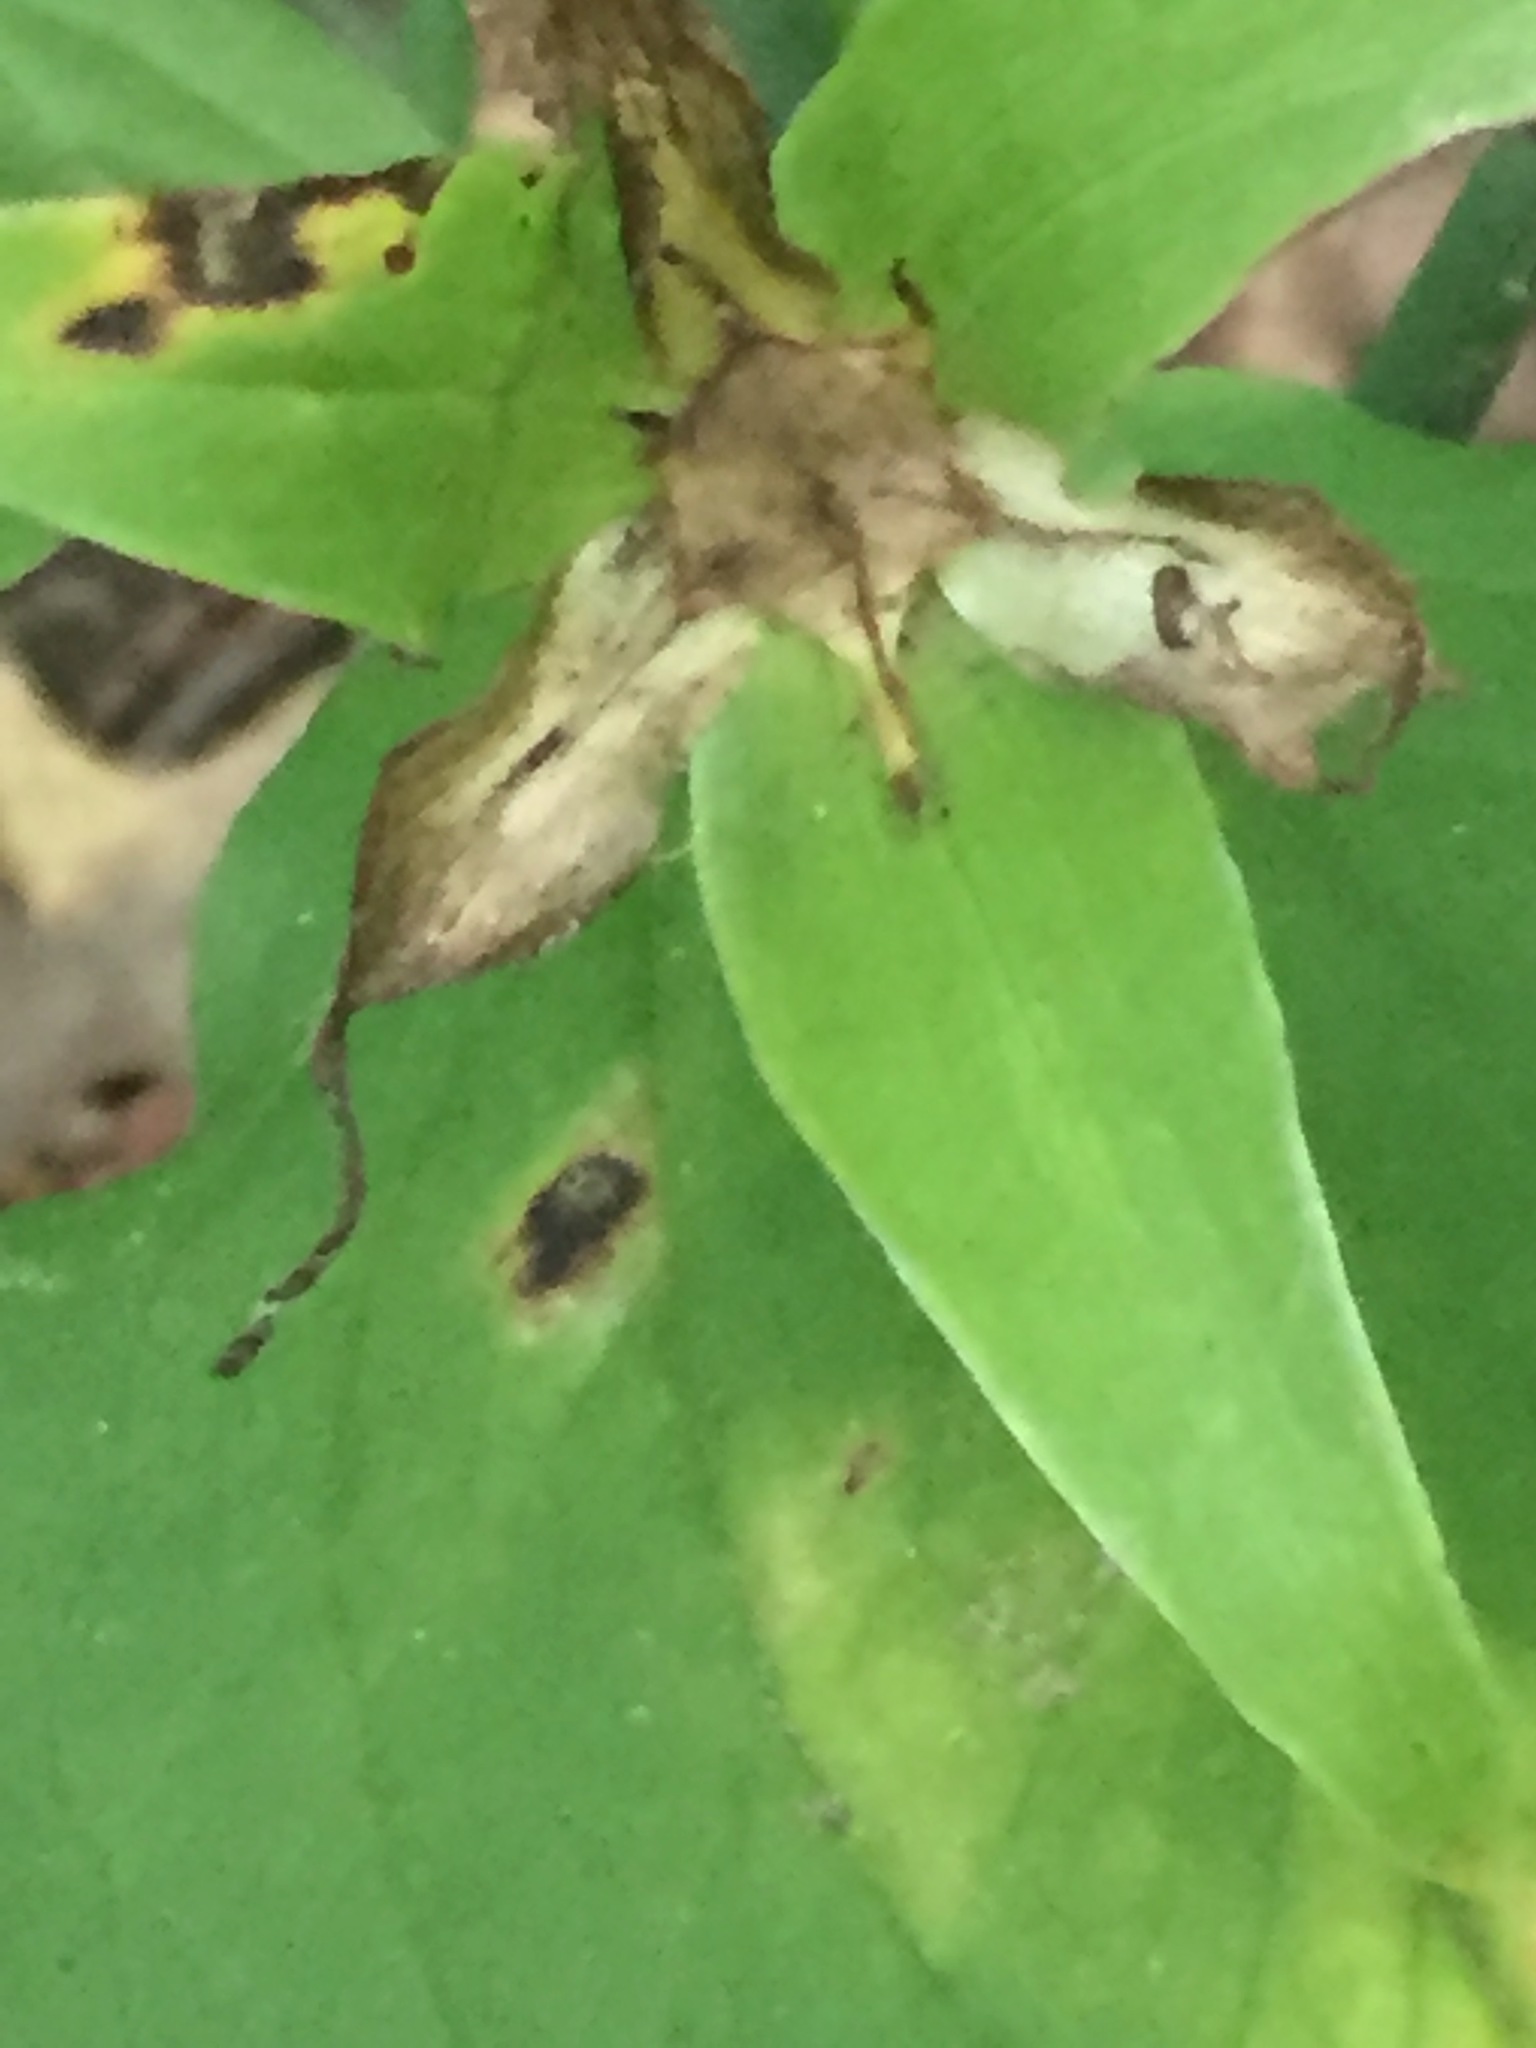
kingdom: Plantae
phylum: Tracheophyta
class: Liliopsida
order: Liliales
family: Melanthiaceae
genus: Trillium
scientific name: Trillium grandiflorum
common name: Great white trillium
